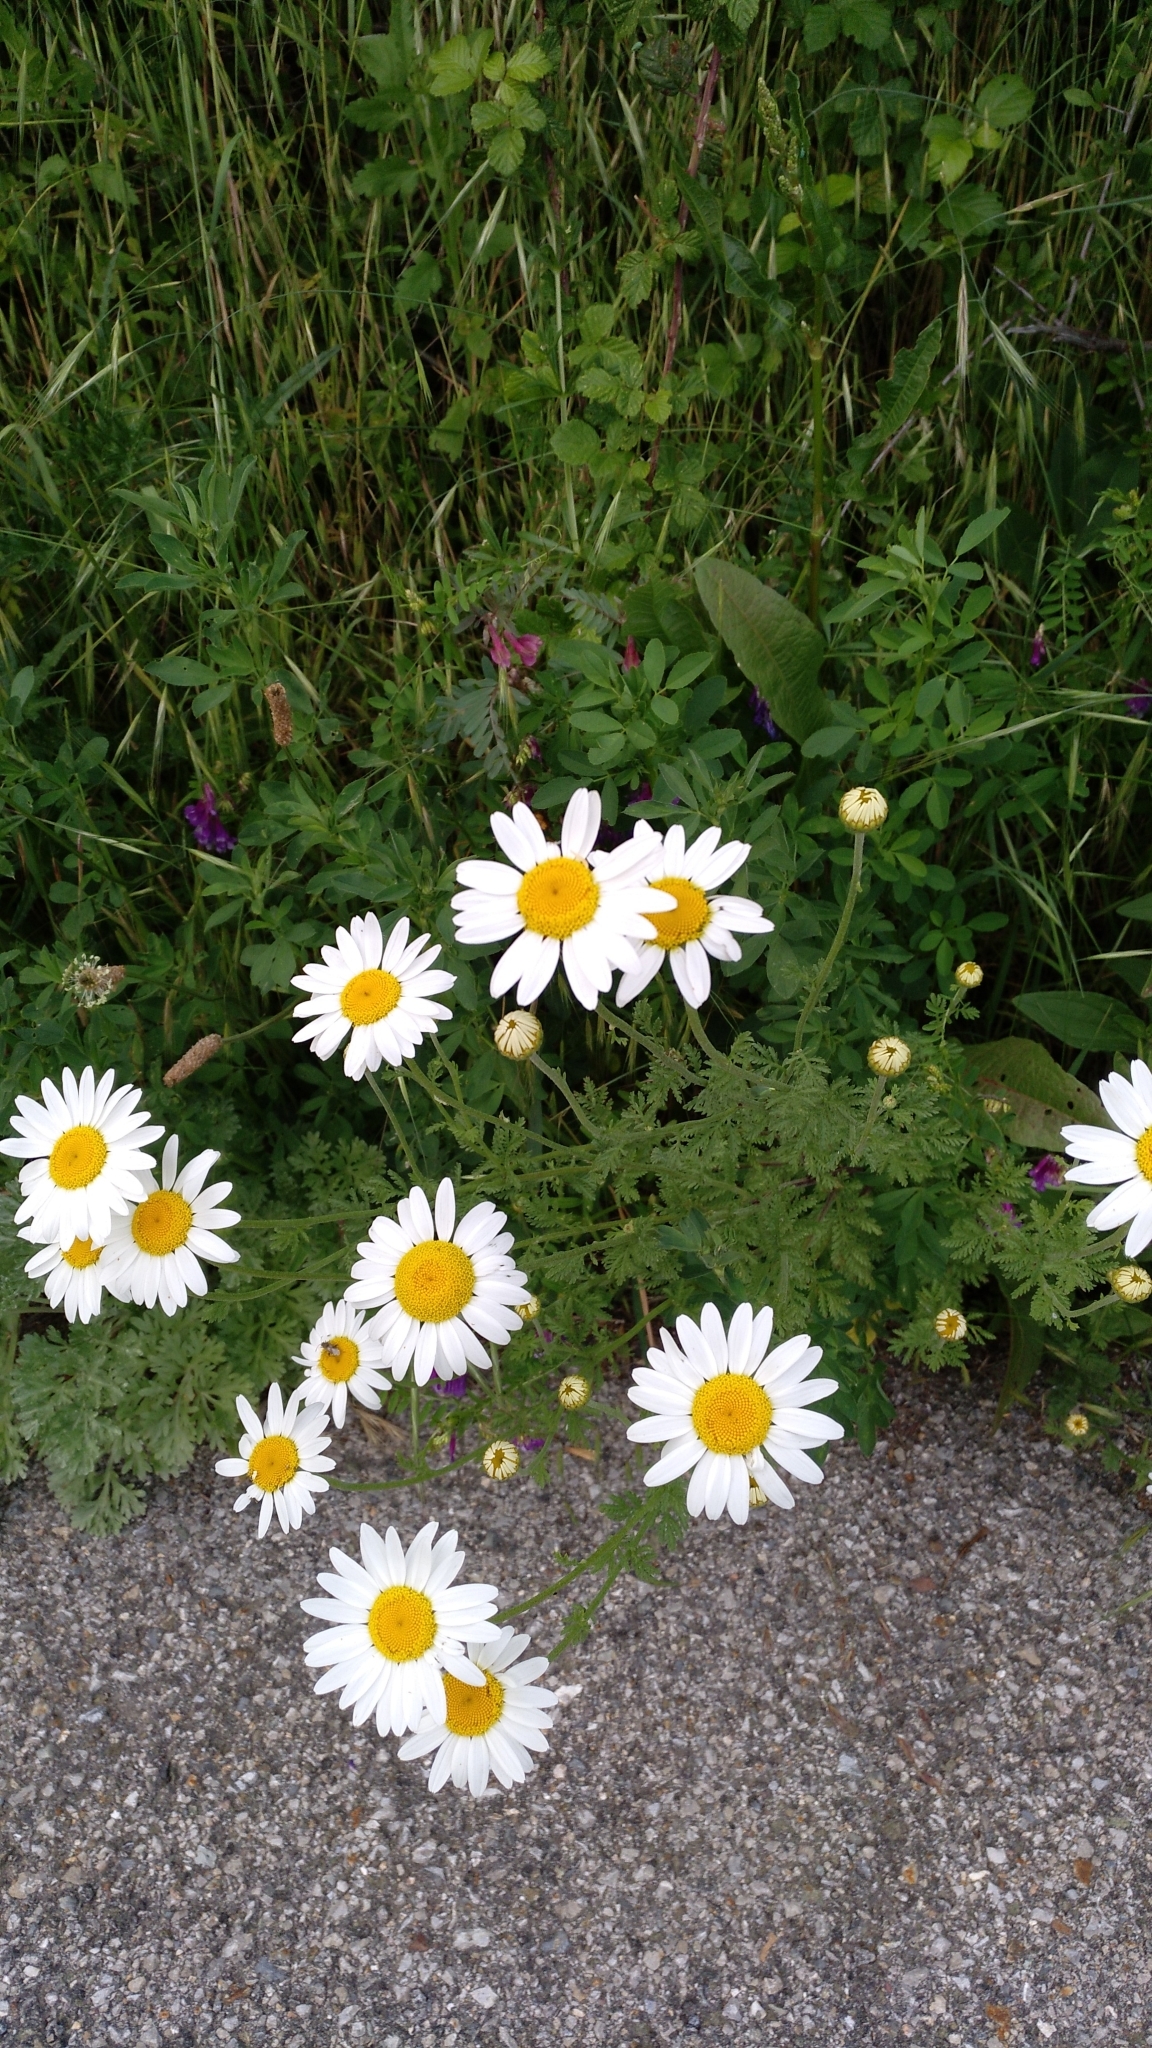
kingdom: Plantae
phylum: Tracheophyta
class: Magnoliopsida
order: Asterales
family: Asteraceae
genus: Leucanthemum
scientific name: Leucanthemum vulgare
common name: Oxeye daisy
